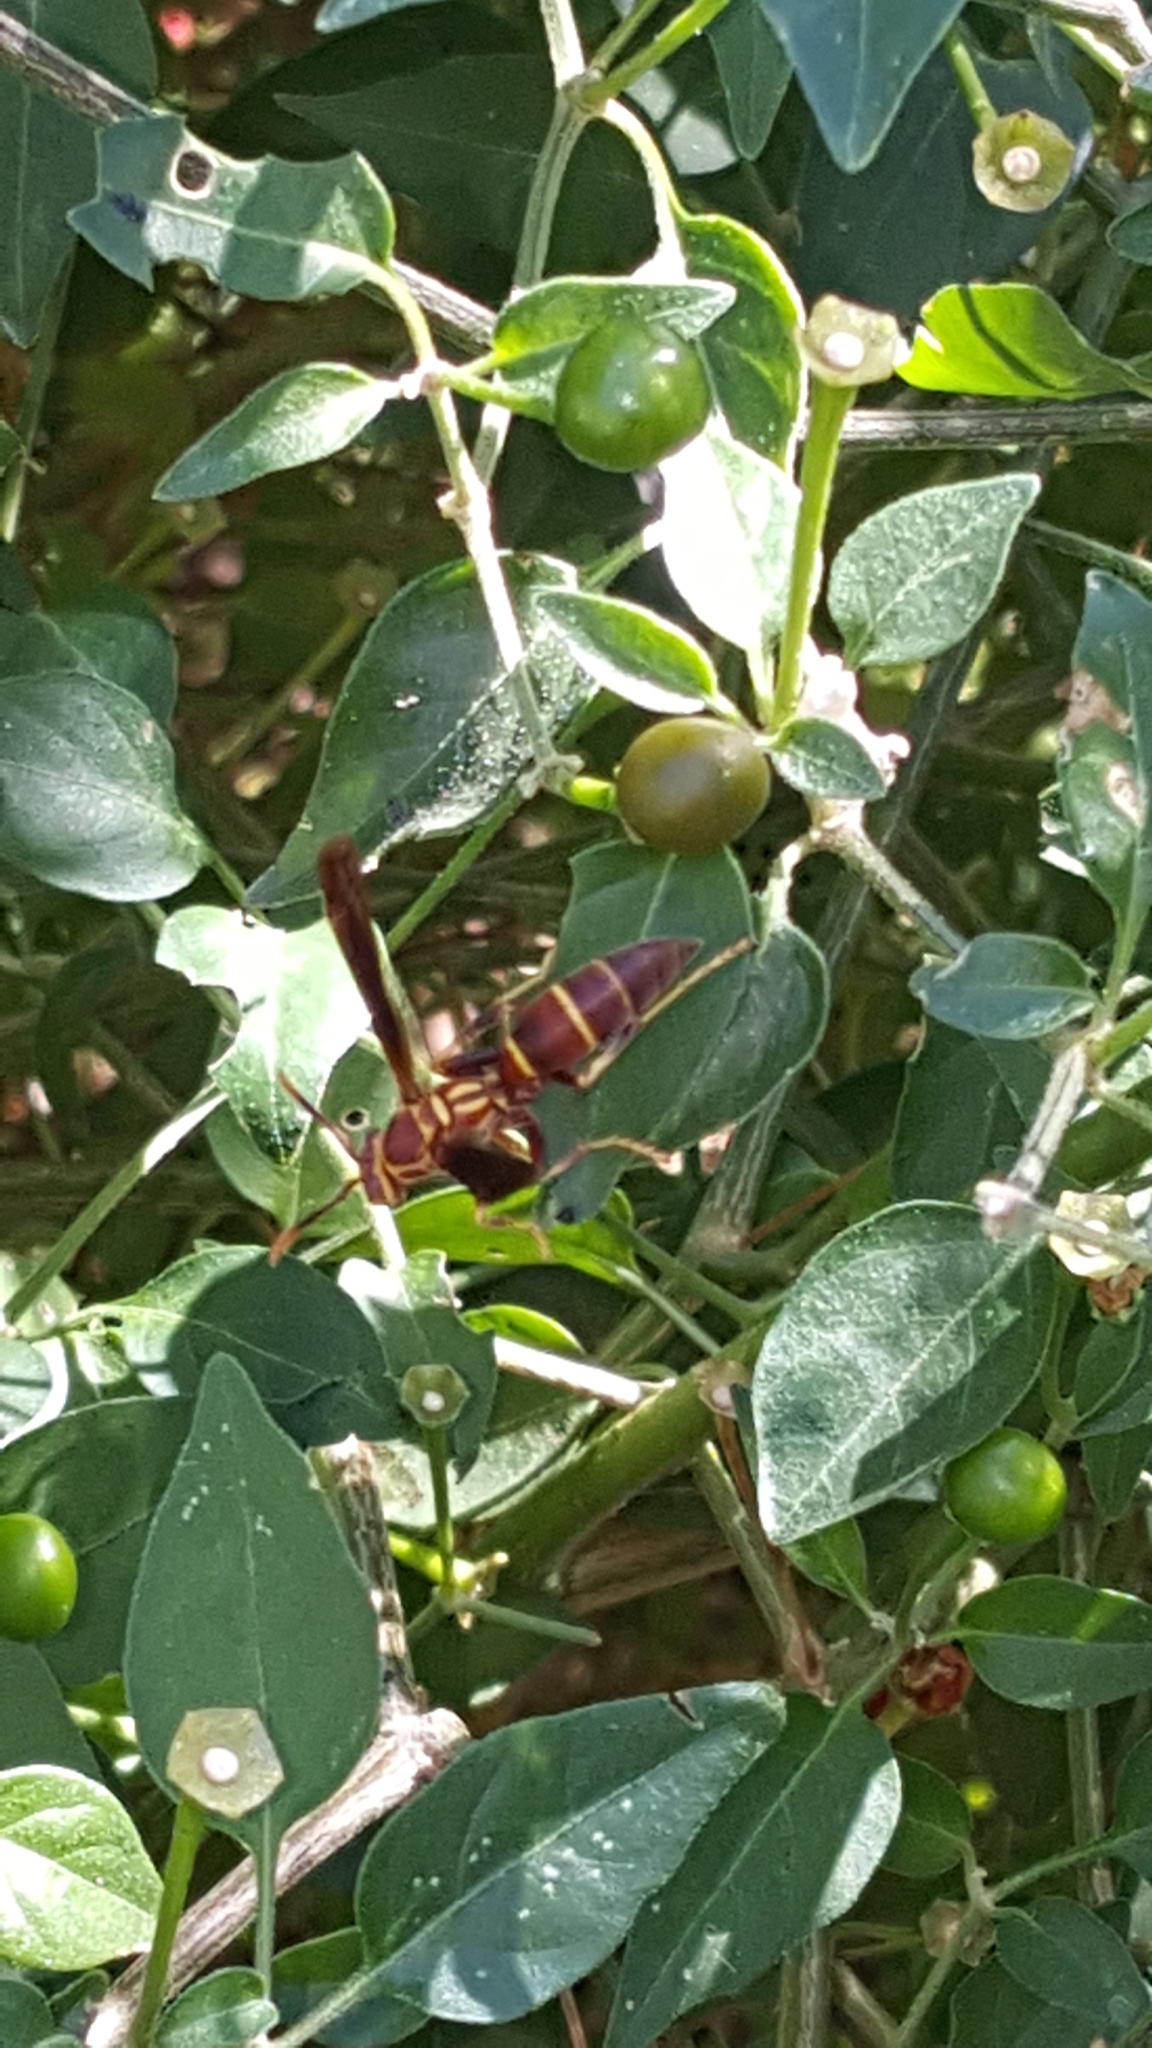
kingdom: Animalia
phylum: Arthropoda
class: Insecta
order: Hymenoptera
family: Eumenidae
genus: Polistes
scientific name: Polistes arizonensis
